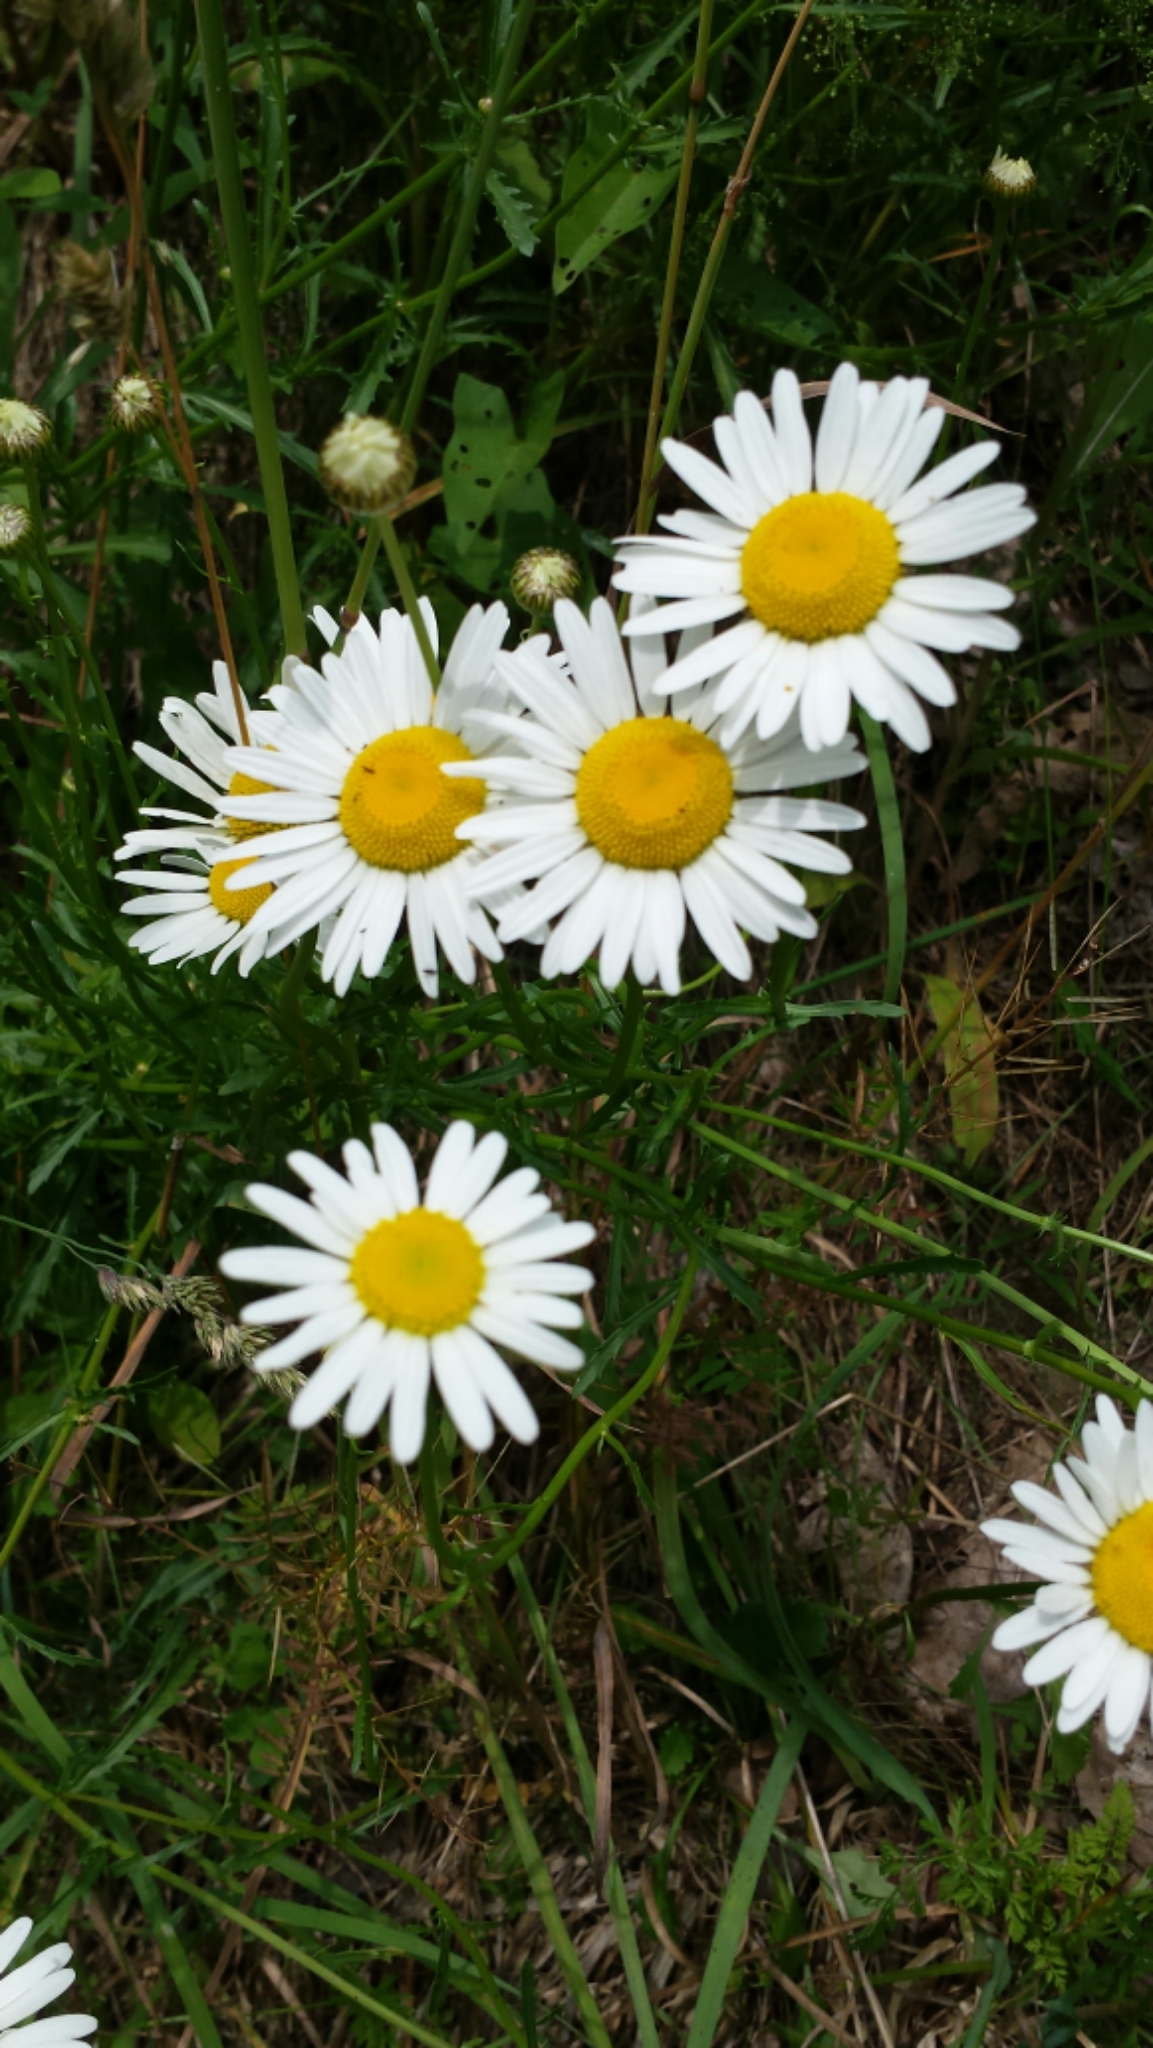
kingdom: Plantae
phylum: Tracheophyta
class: Magnoliopsida
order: Asterales
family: Asteraceae
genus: Leucanthemum
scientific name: Leucanthemum vulgare
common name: Oxeye daisy
